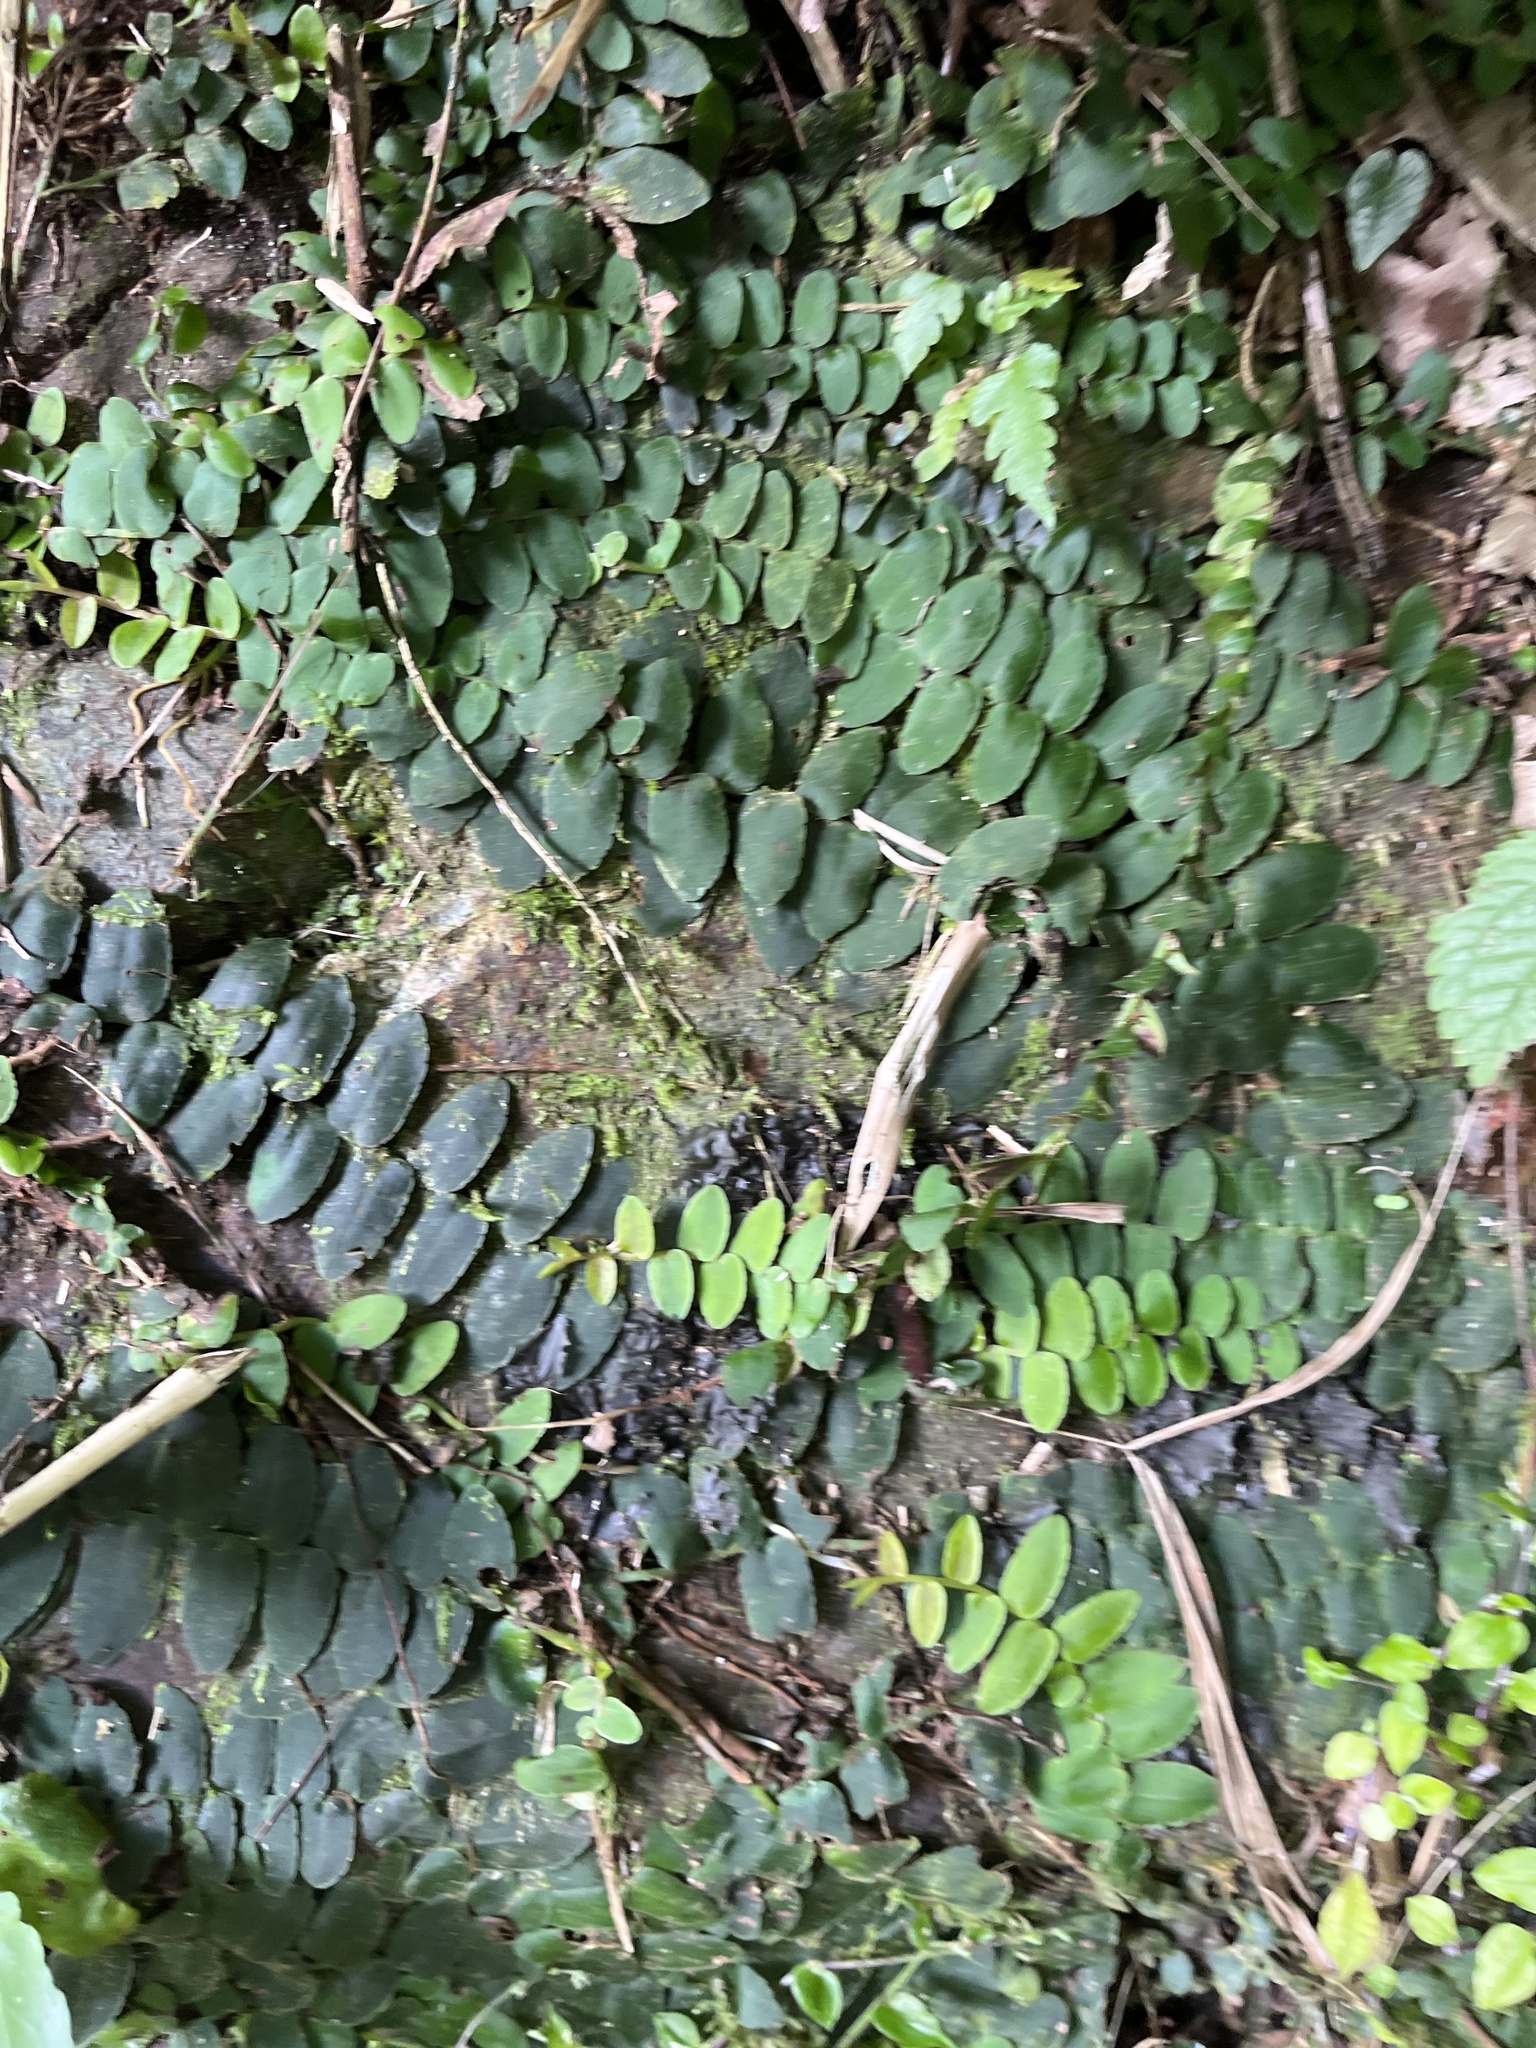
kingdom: Plantae
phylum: Tracheophyta
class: Magnoliopsida
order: Ericales
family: Marcgraviaceae
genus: Marcgravia
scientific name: Marcgravia rectiflora
